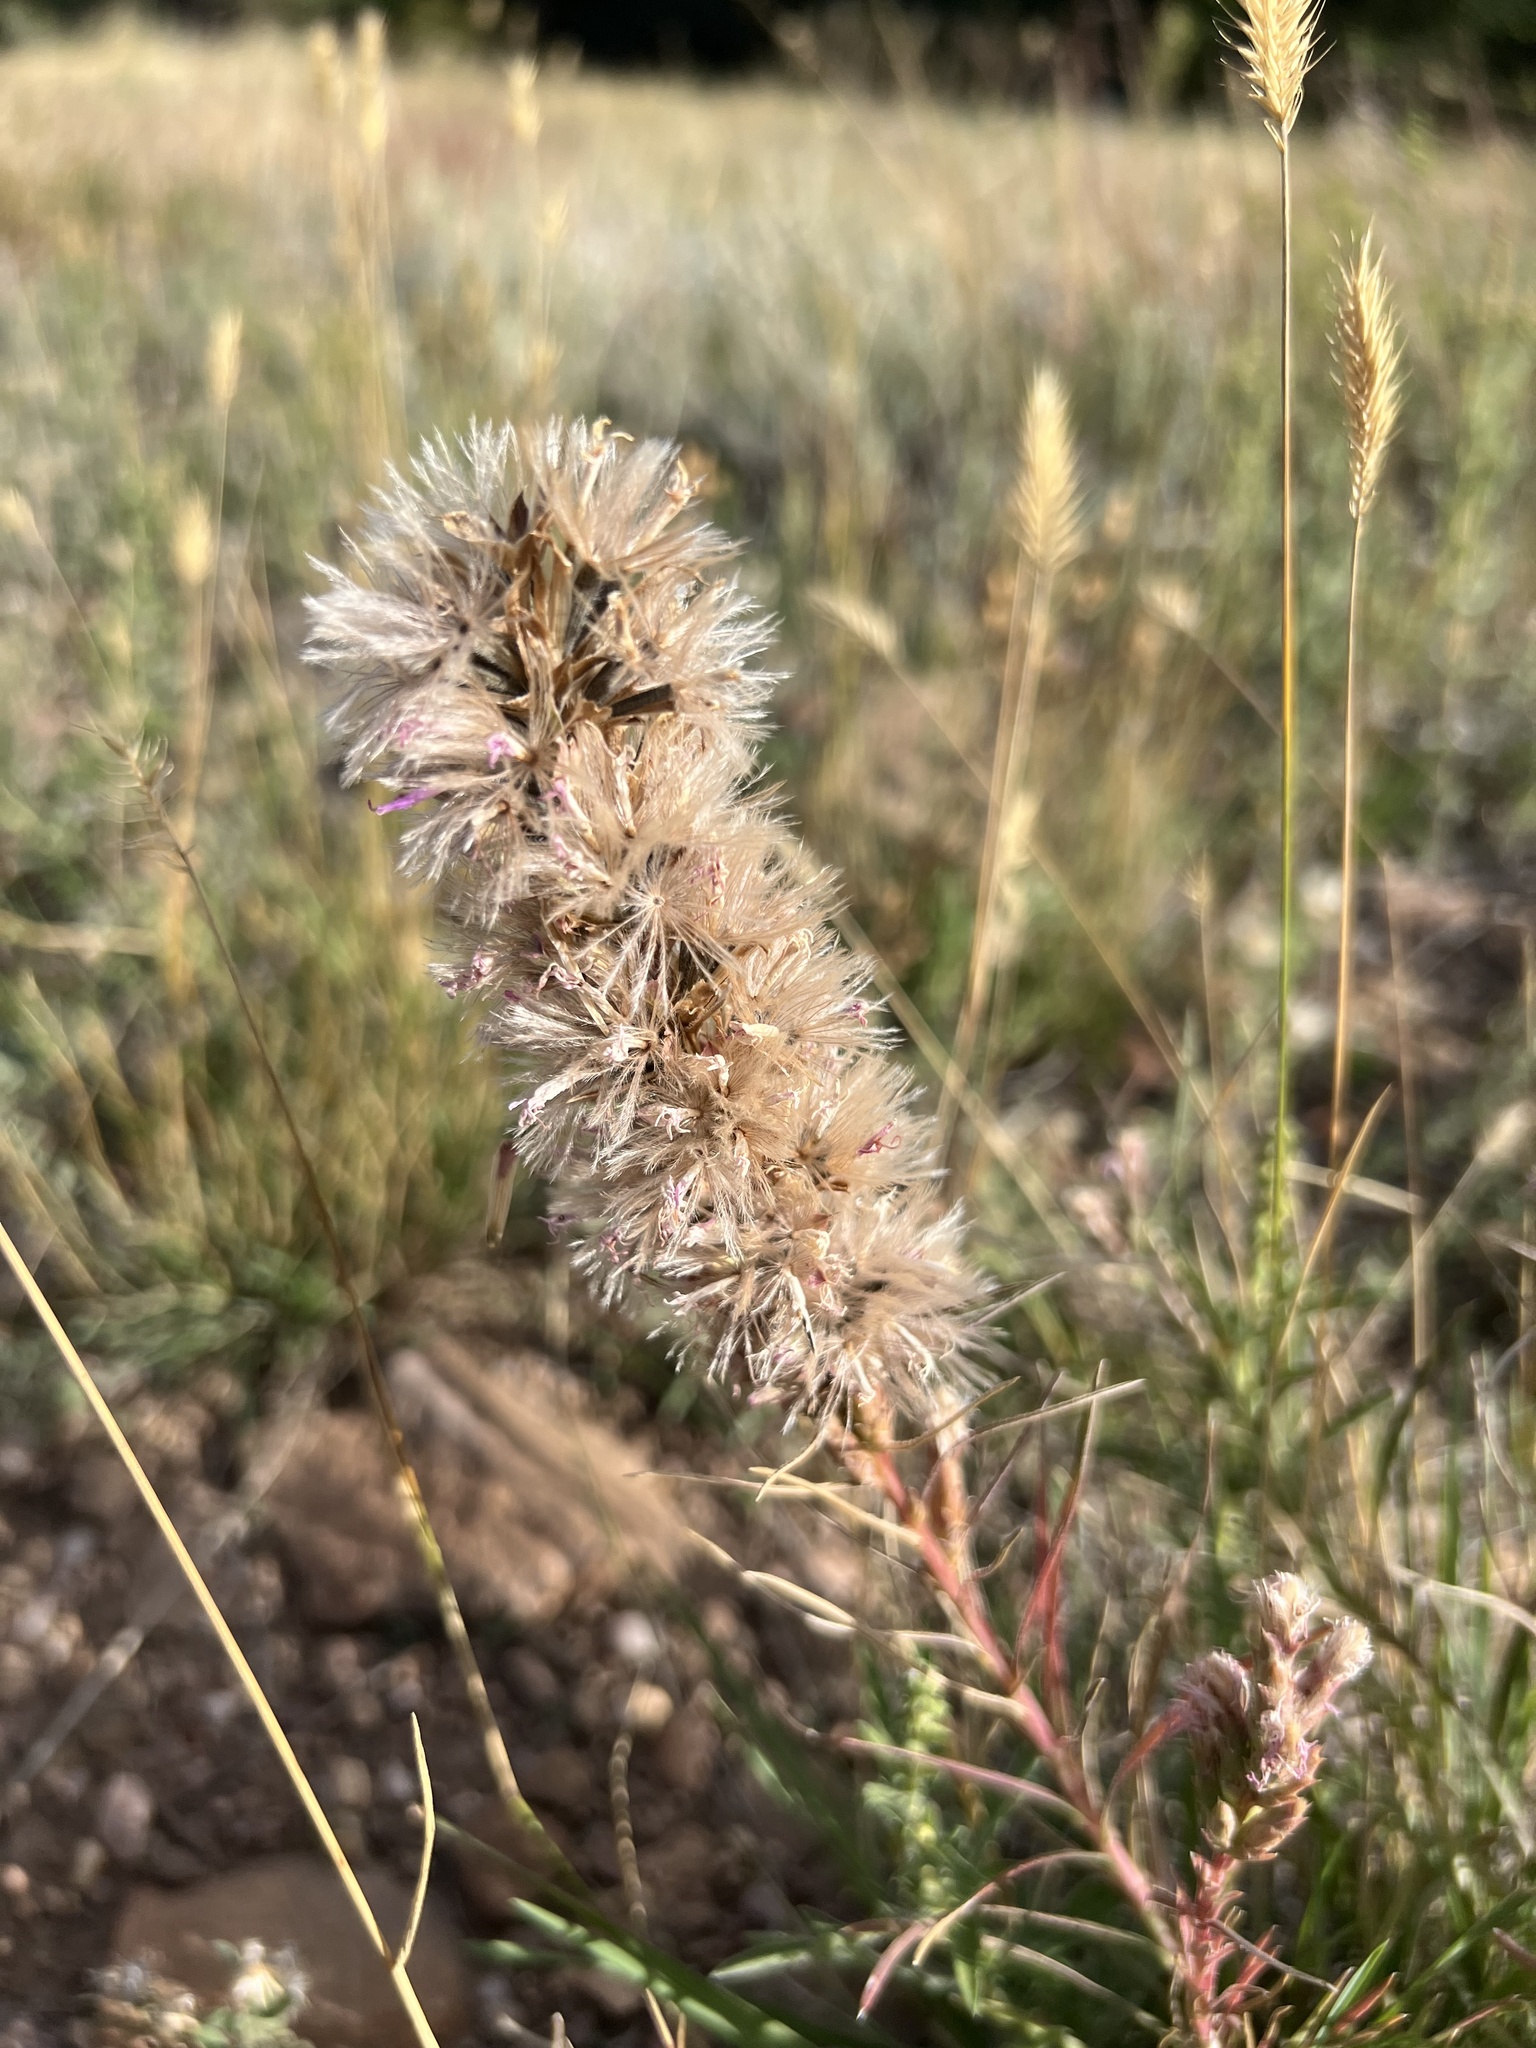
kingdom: Plantae
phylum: Tracheophyta
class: Magnoliopsida
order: Asterales
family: Asteraceae
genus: Liatris
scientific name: Liatris punctata
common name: Dotted gayfeather
